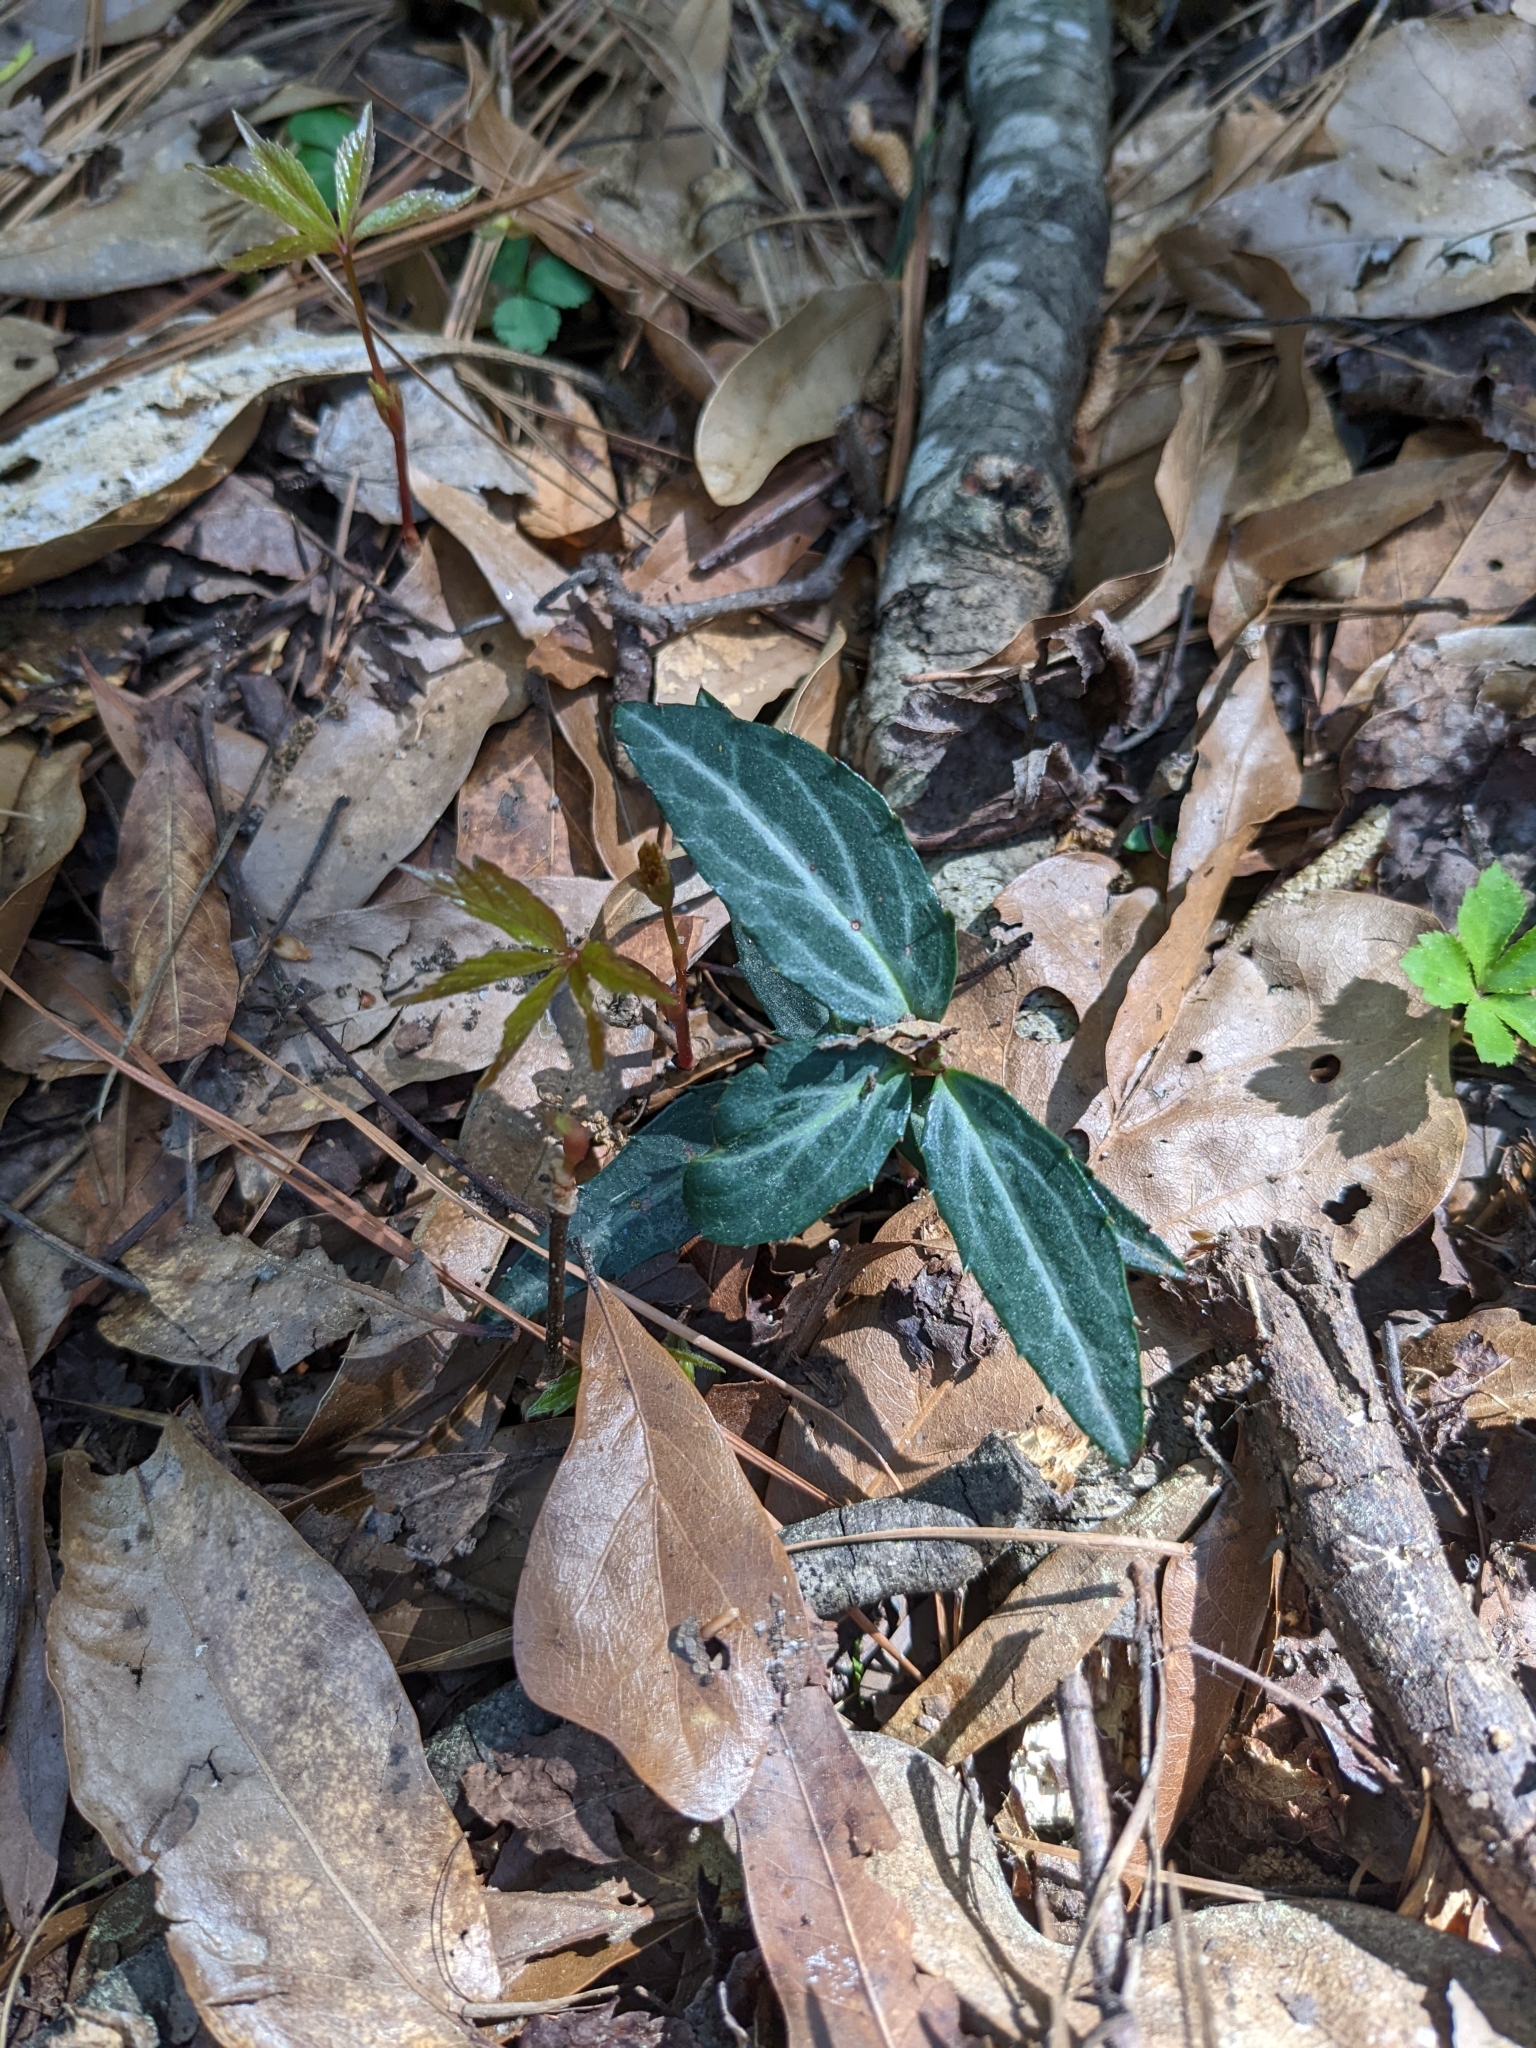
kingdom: Plantae
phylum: Tracheophyta
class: Magnoliopsida
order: Ericales
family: Ericaceae
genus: Chimaphila
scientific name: Chimaphila maculata
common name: Spotted pipsissewa
